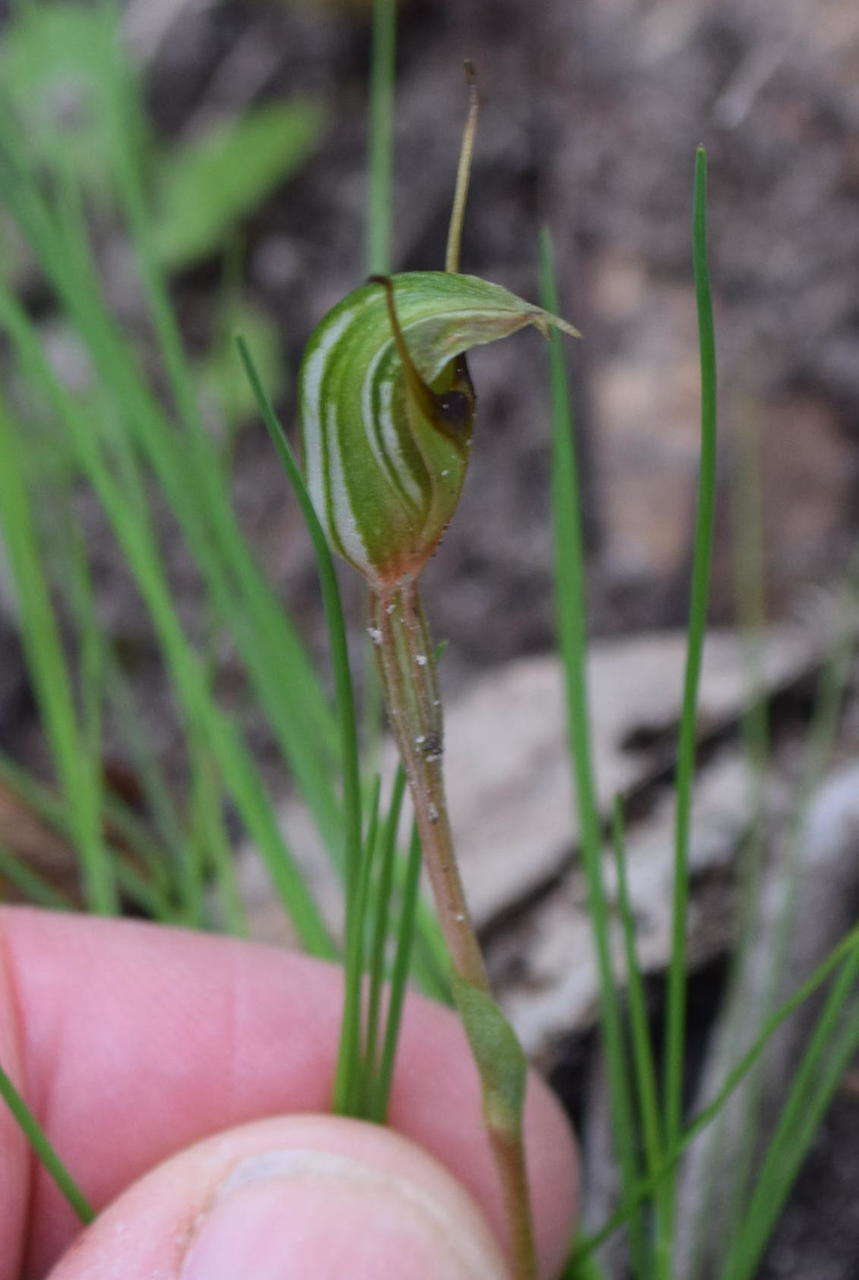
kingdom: Plantae
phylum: Tracheophyta
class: Liliopsida
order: Asparagales
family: Orchidaceae
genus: Pterostylis
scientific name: Pterostylis concinna
